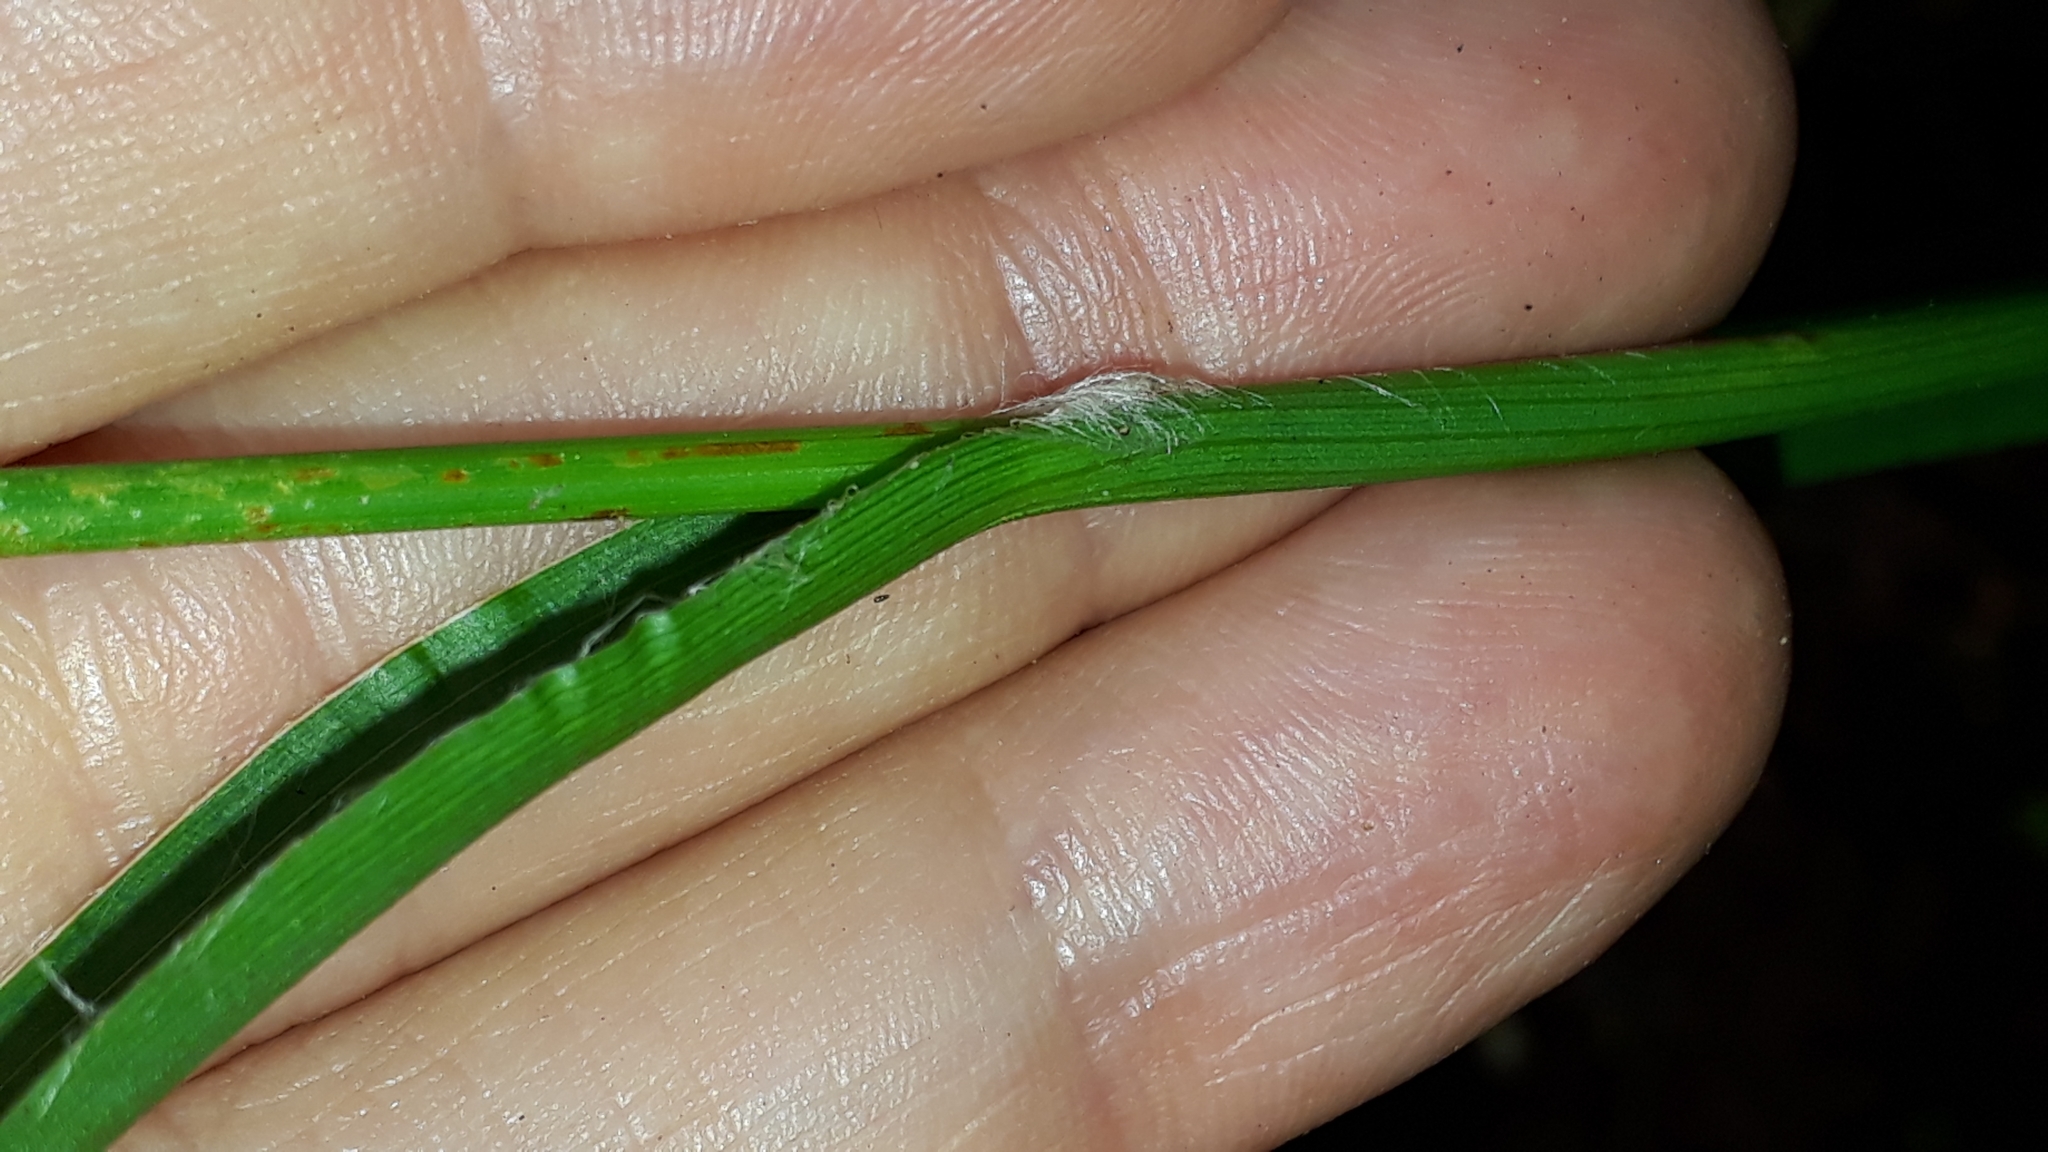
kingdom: Plantae
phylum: Tracheophyta
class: Liliopsida
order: Poales
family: Juncaceae
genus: Luzula
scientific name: Luzula canariensis
